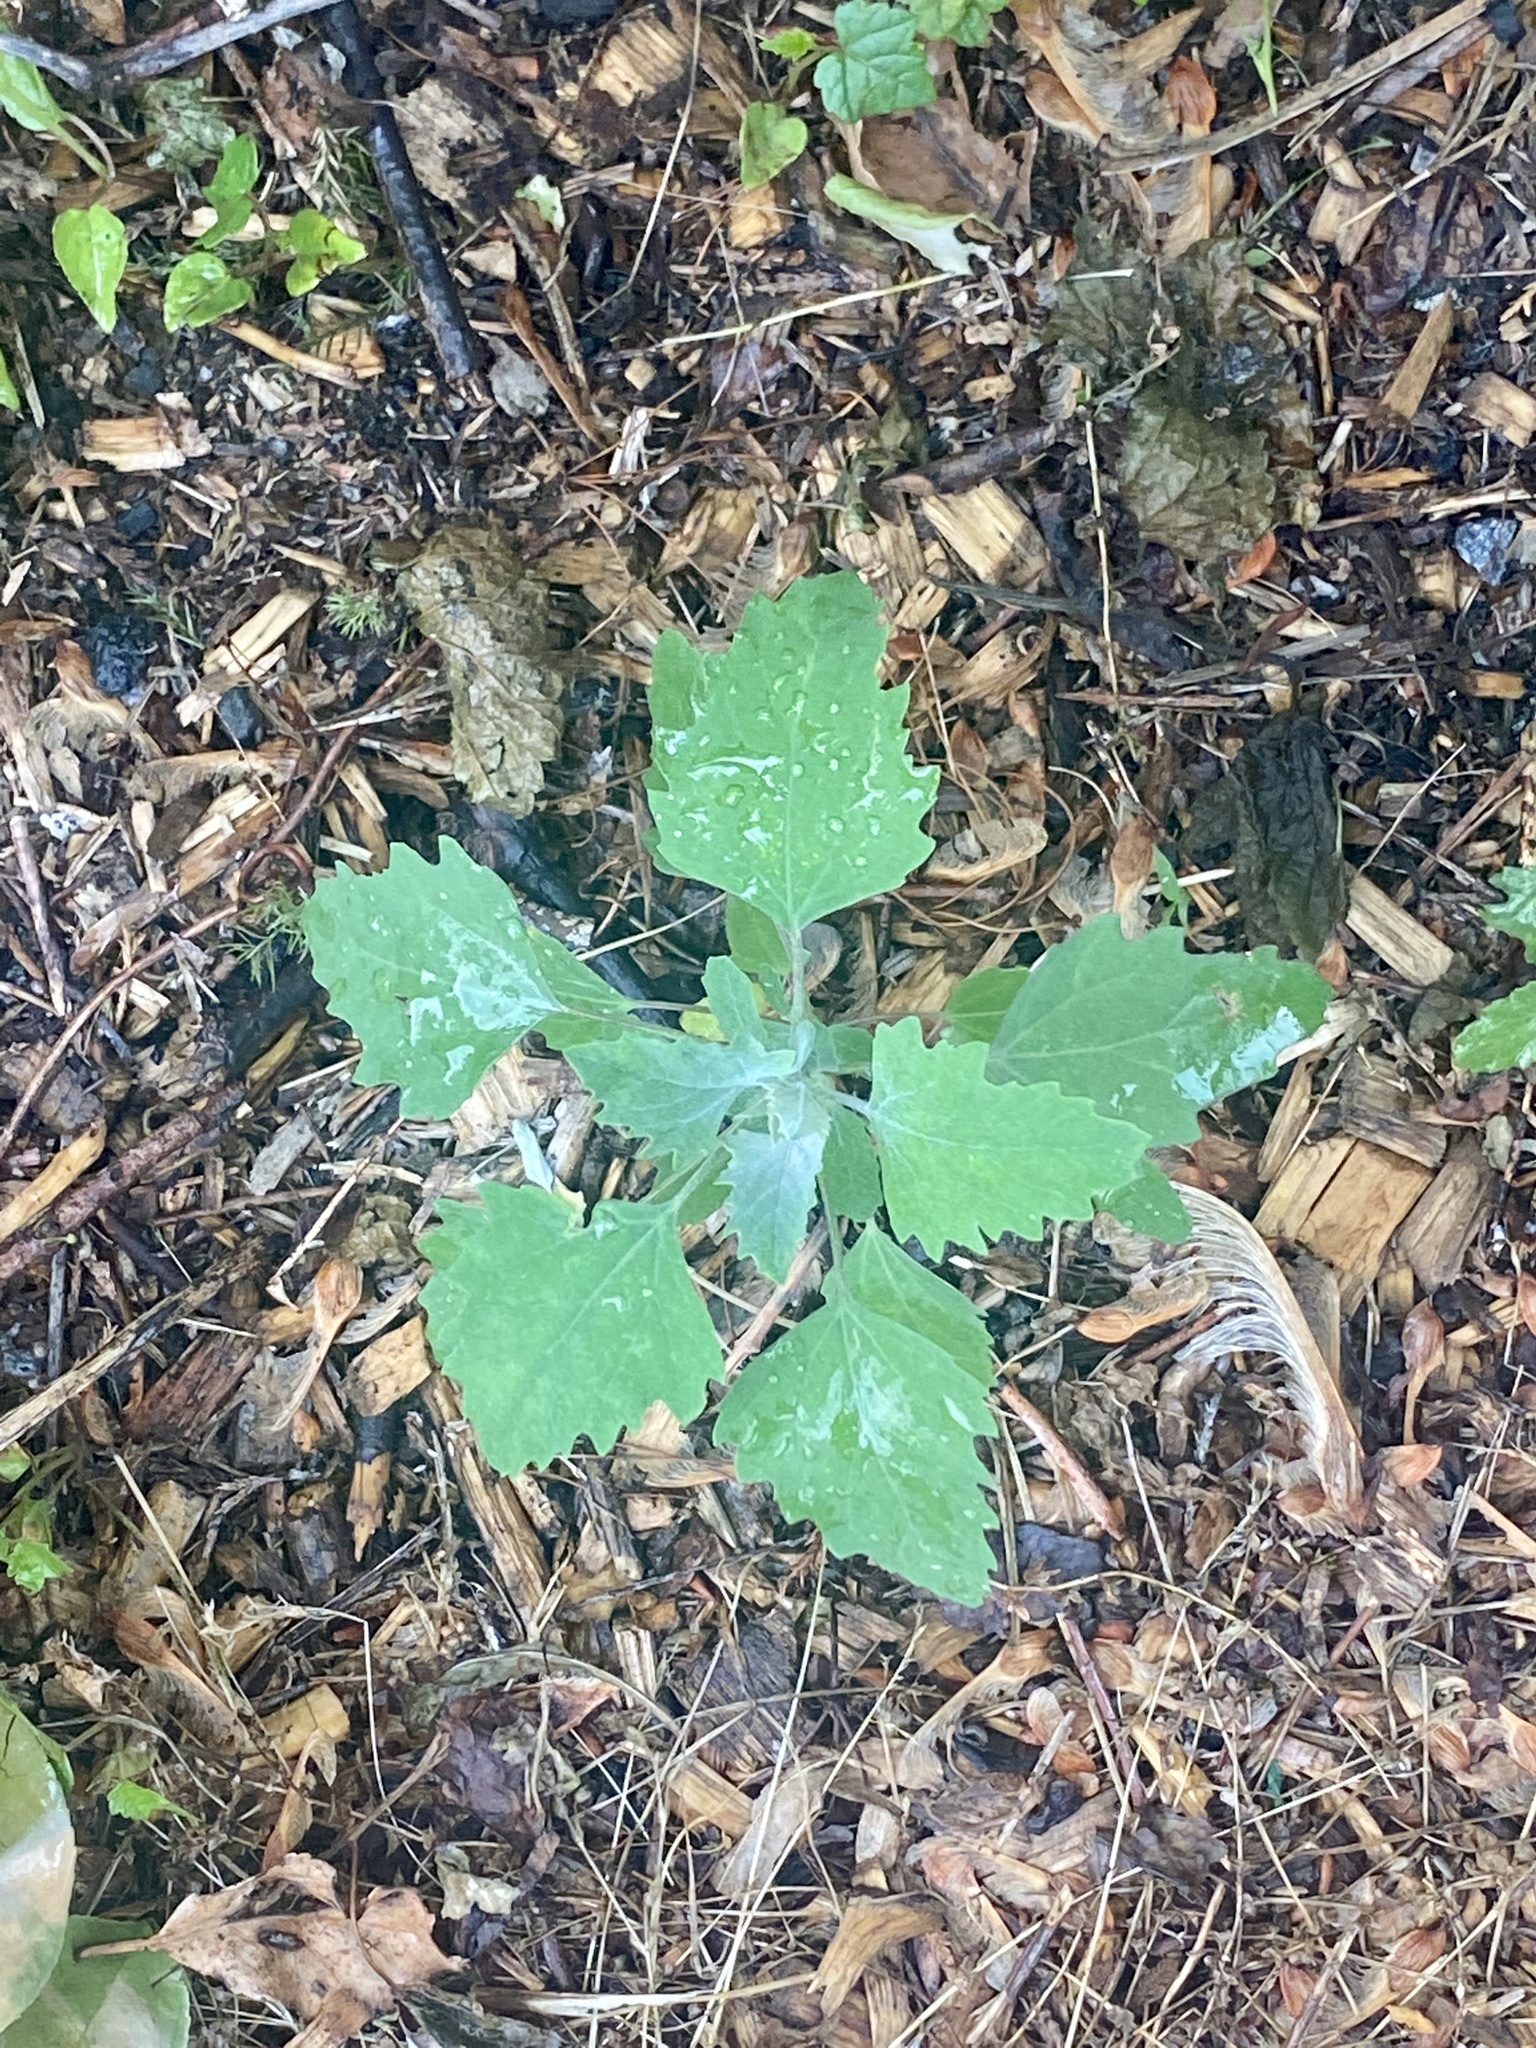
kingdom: Plantae
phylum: Tracheophyta
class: Magnoliopsida
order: Caryophyllales
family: Amaranthaceae
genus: Chenopodium
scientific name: Chenopodium album
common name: Fat-hen
